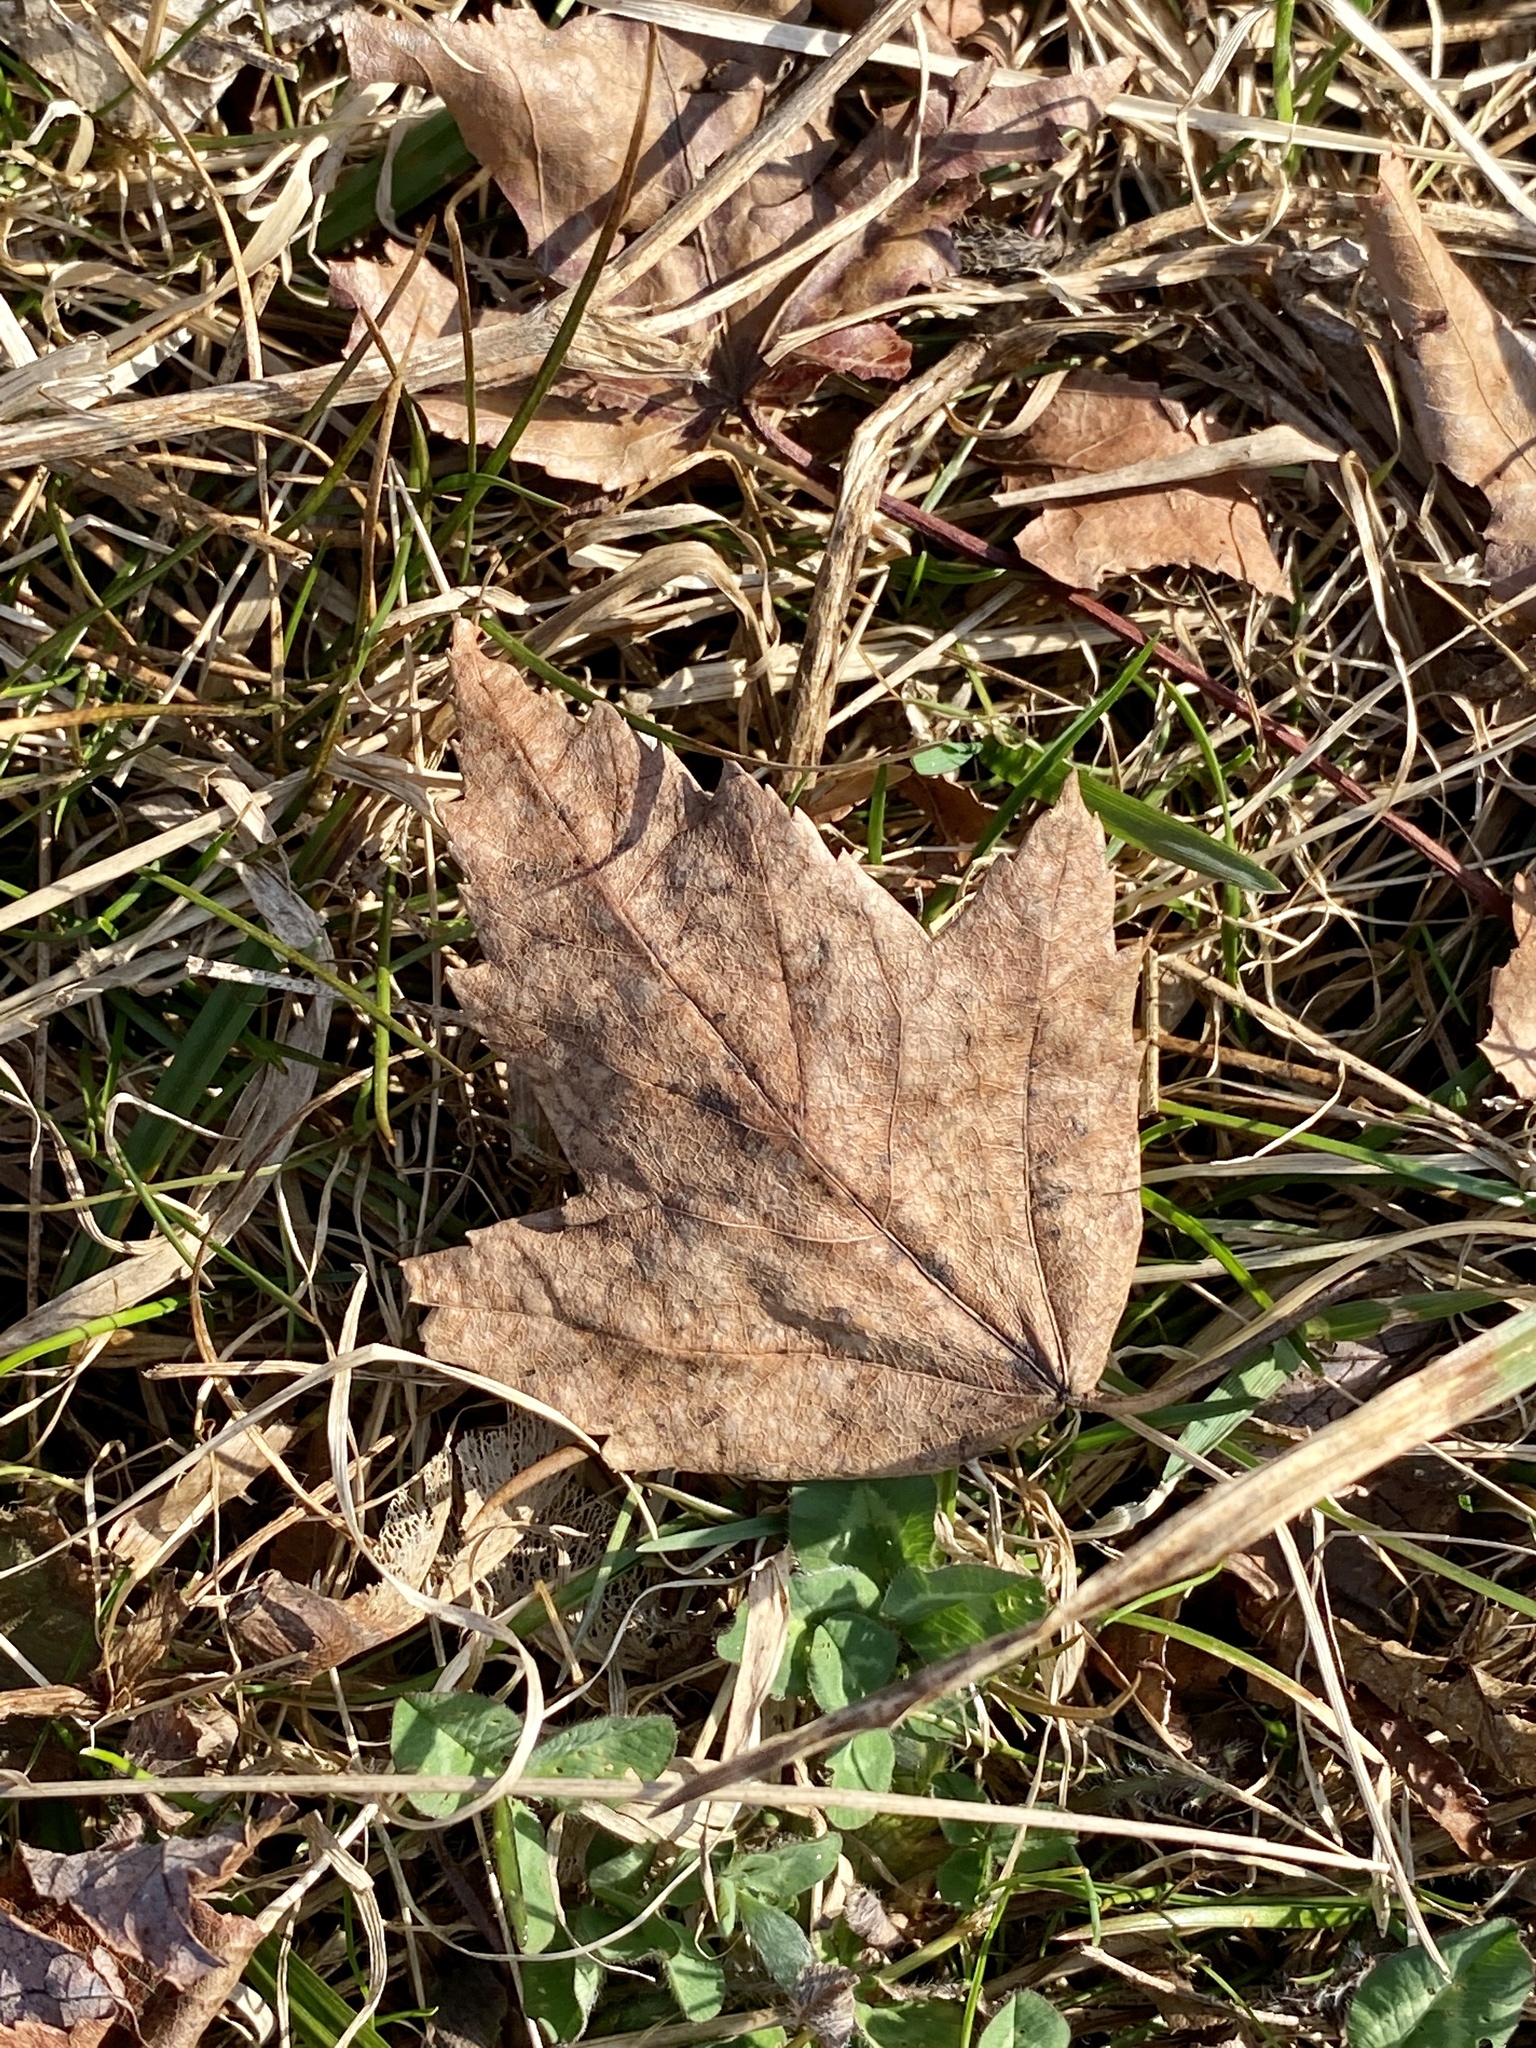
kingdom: Plantae
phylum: Tracheophyta
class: Magnoliopsida
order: Sapindales
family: Sapindaceae
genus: Acer
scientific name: Acer rubrum
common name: Red maple
